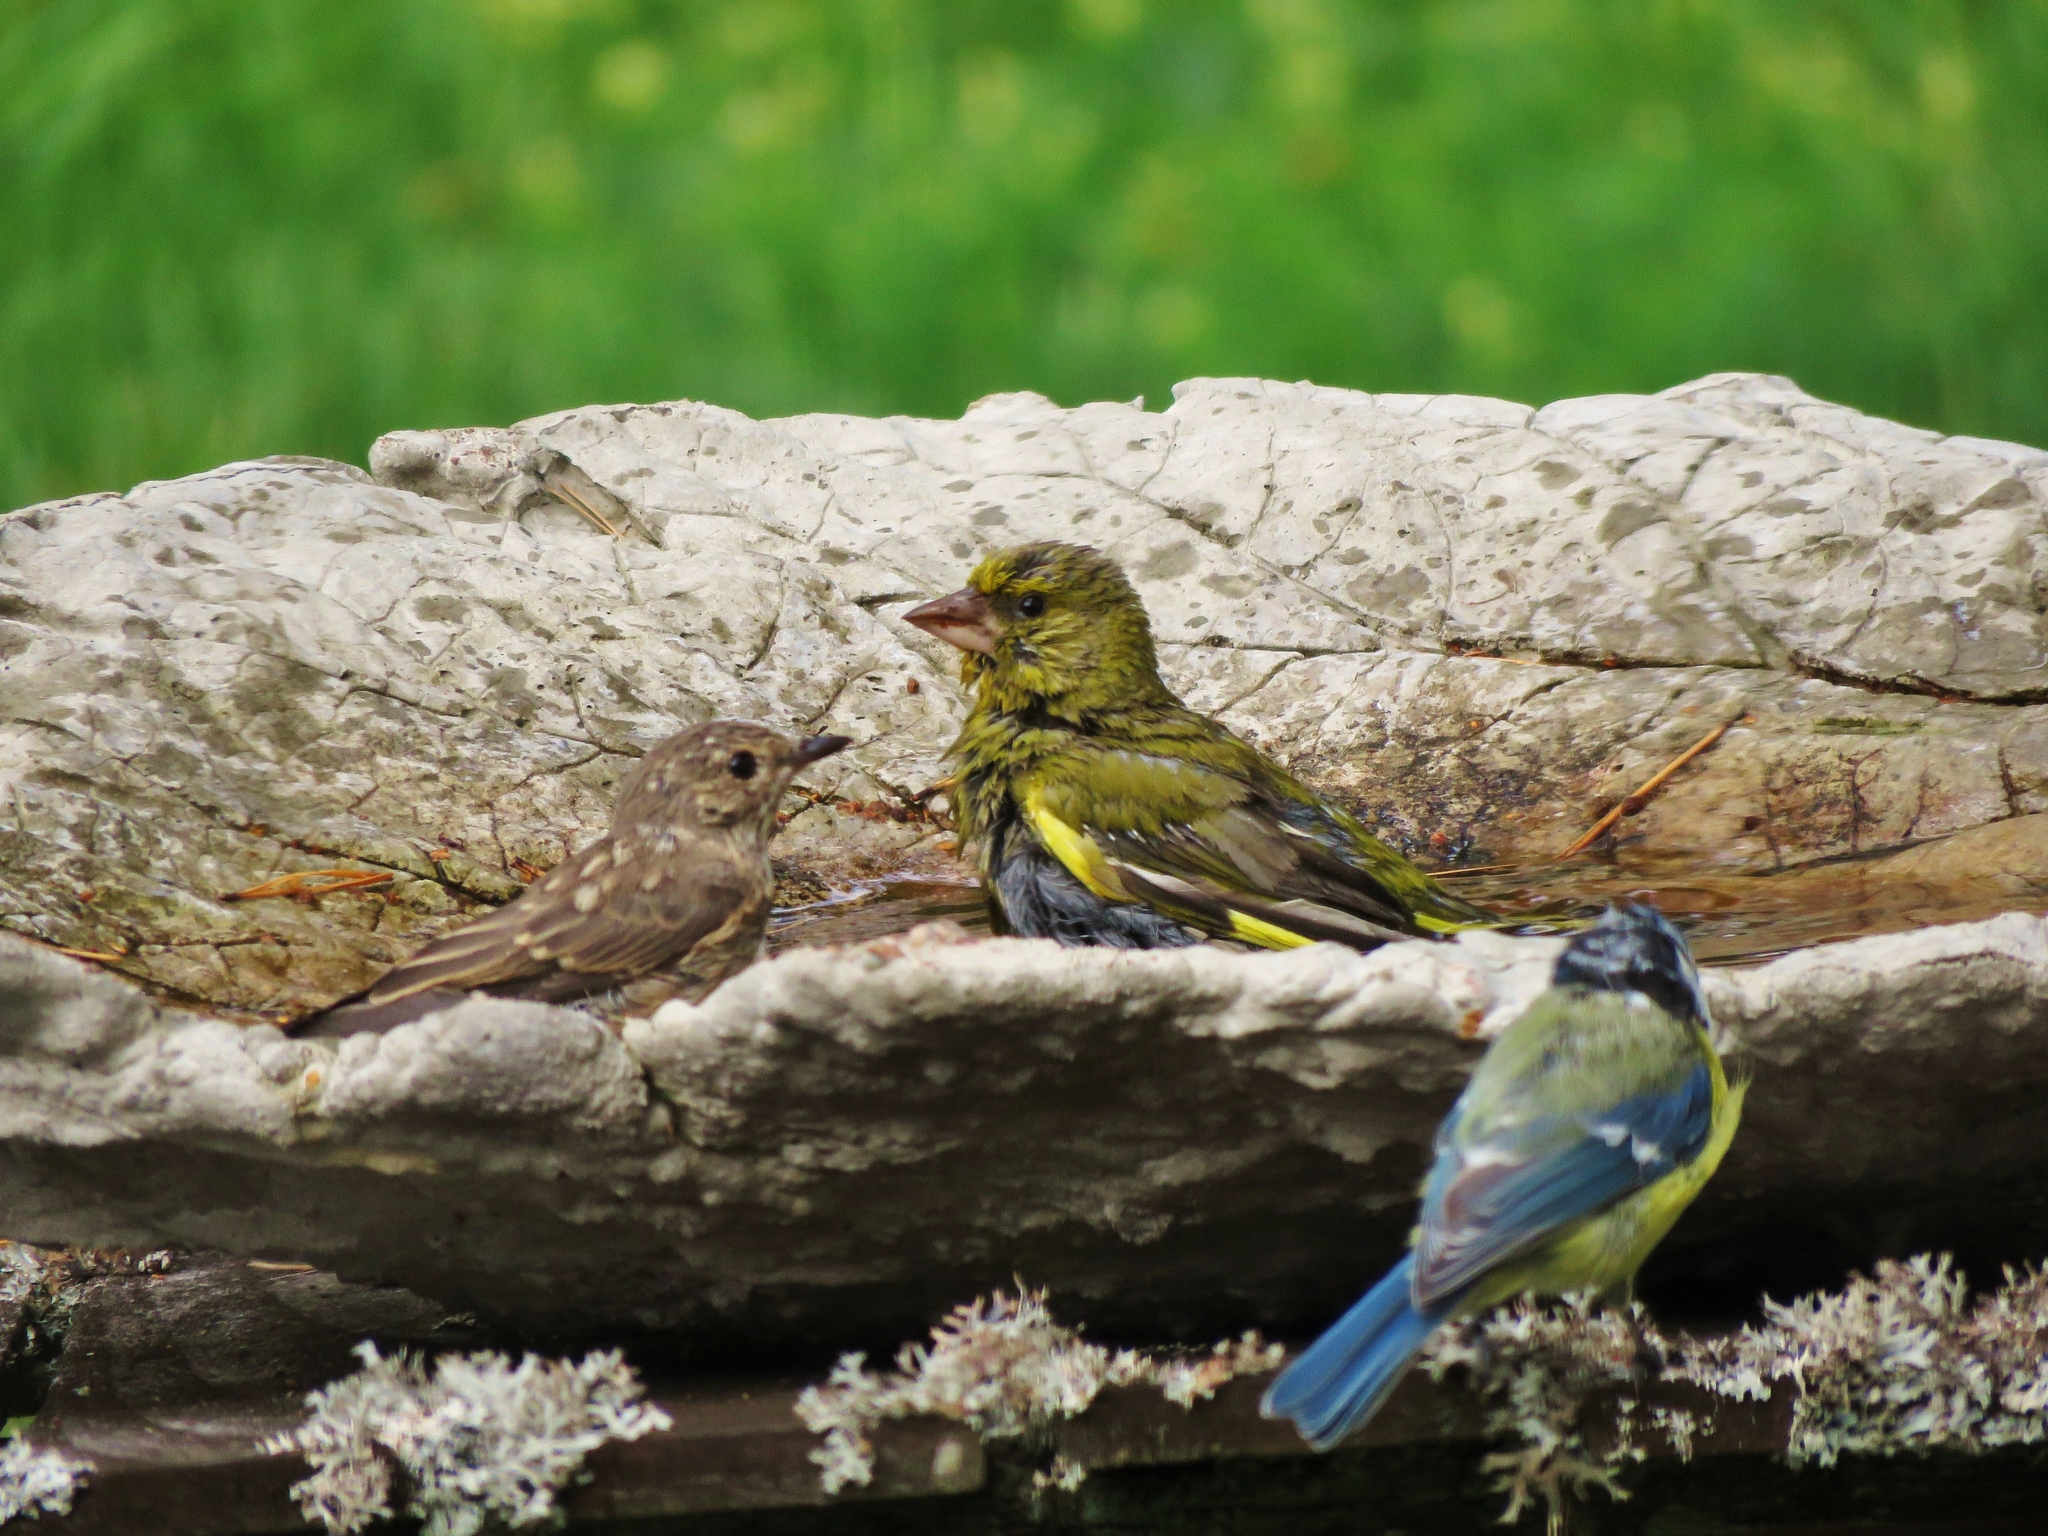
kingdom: Plantae
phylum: Tracheophyta
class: Liliopsida
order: Poales
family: Poaceae
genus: Chloris
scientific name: Chloris chloris
